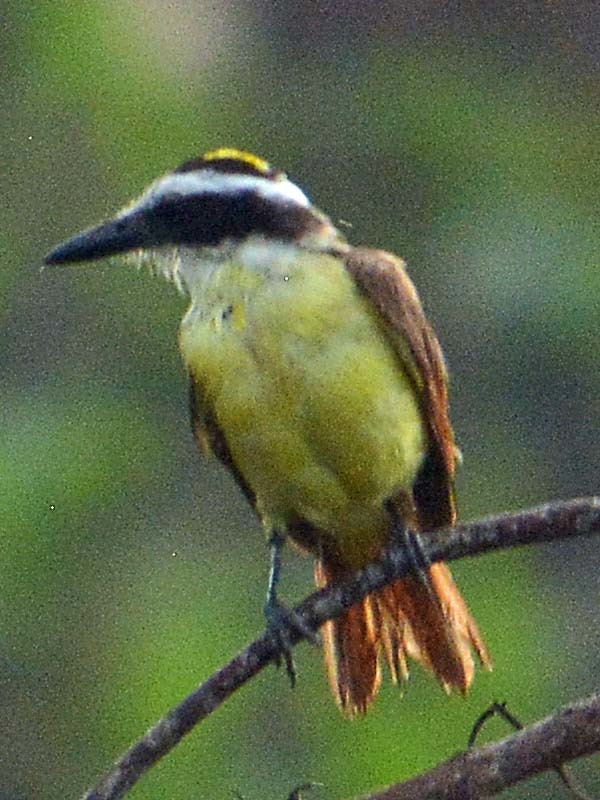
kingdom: Animalia
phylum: Chordata
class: Aves
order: Passeriformes
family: Tyrannidae
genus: Pitangus
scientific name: Pitangus sulphuratus
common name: Great kiskadee
